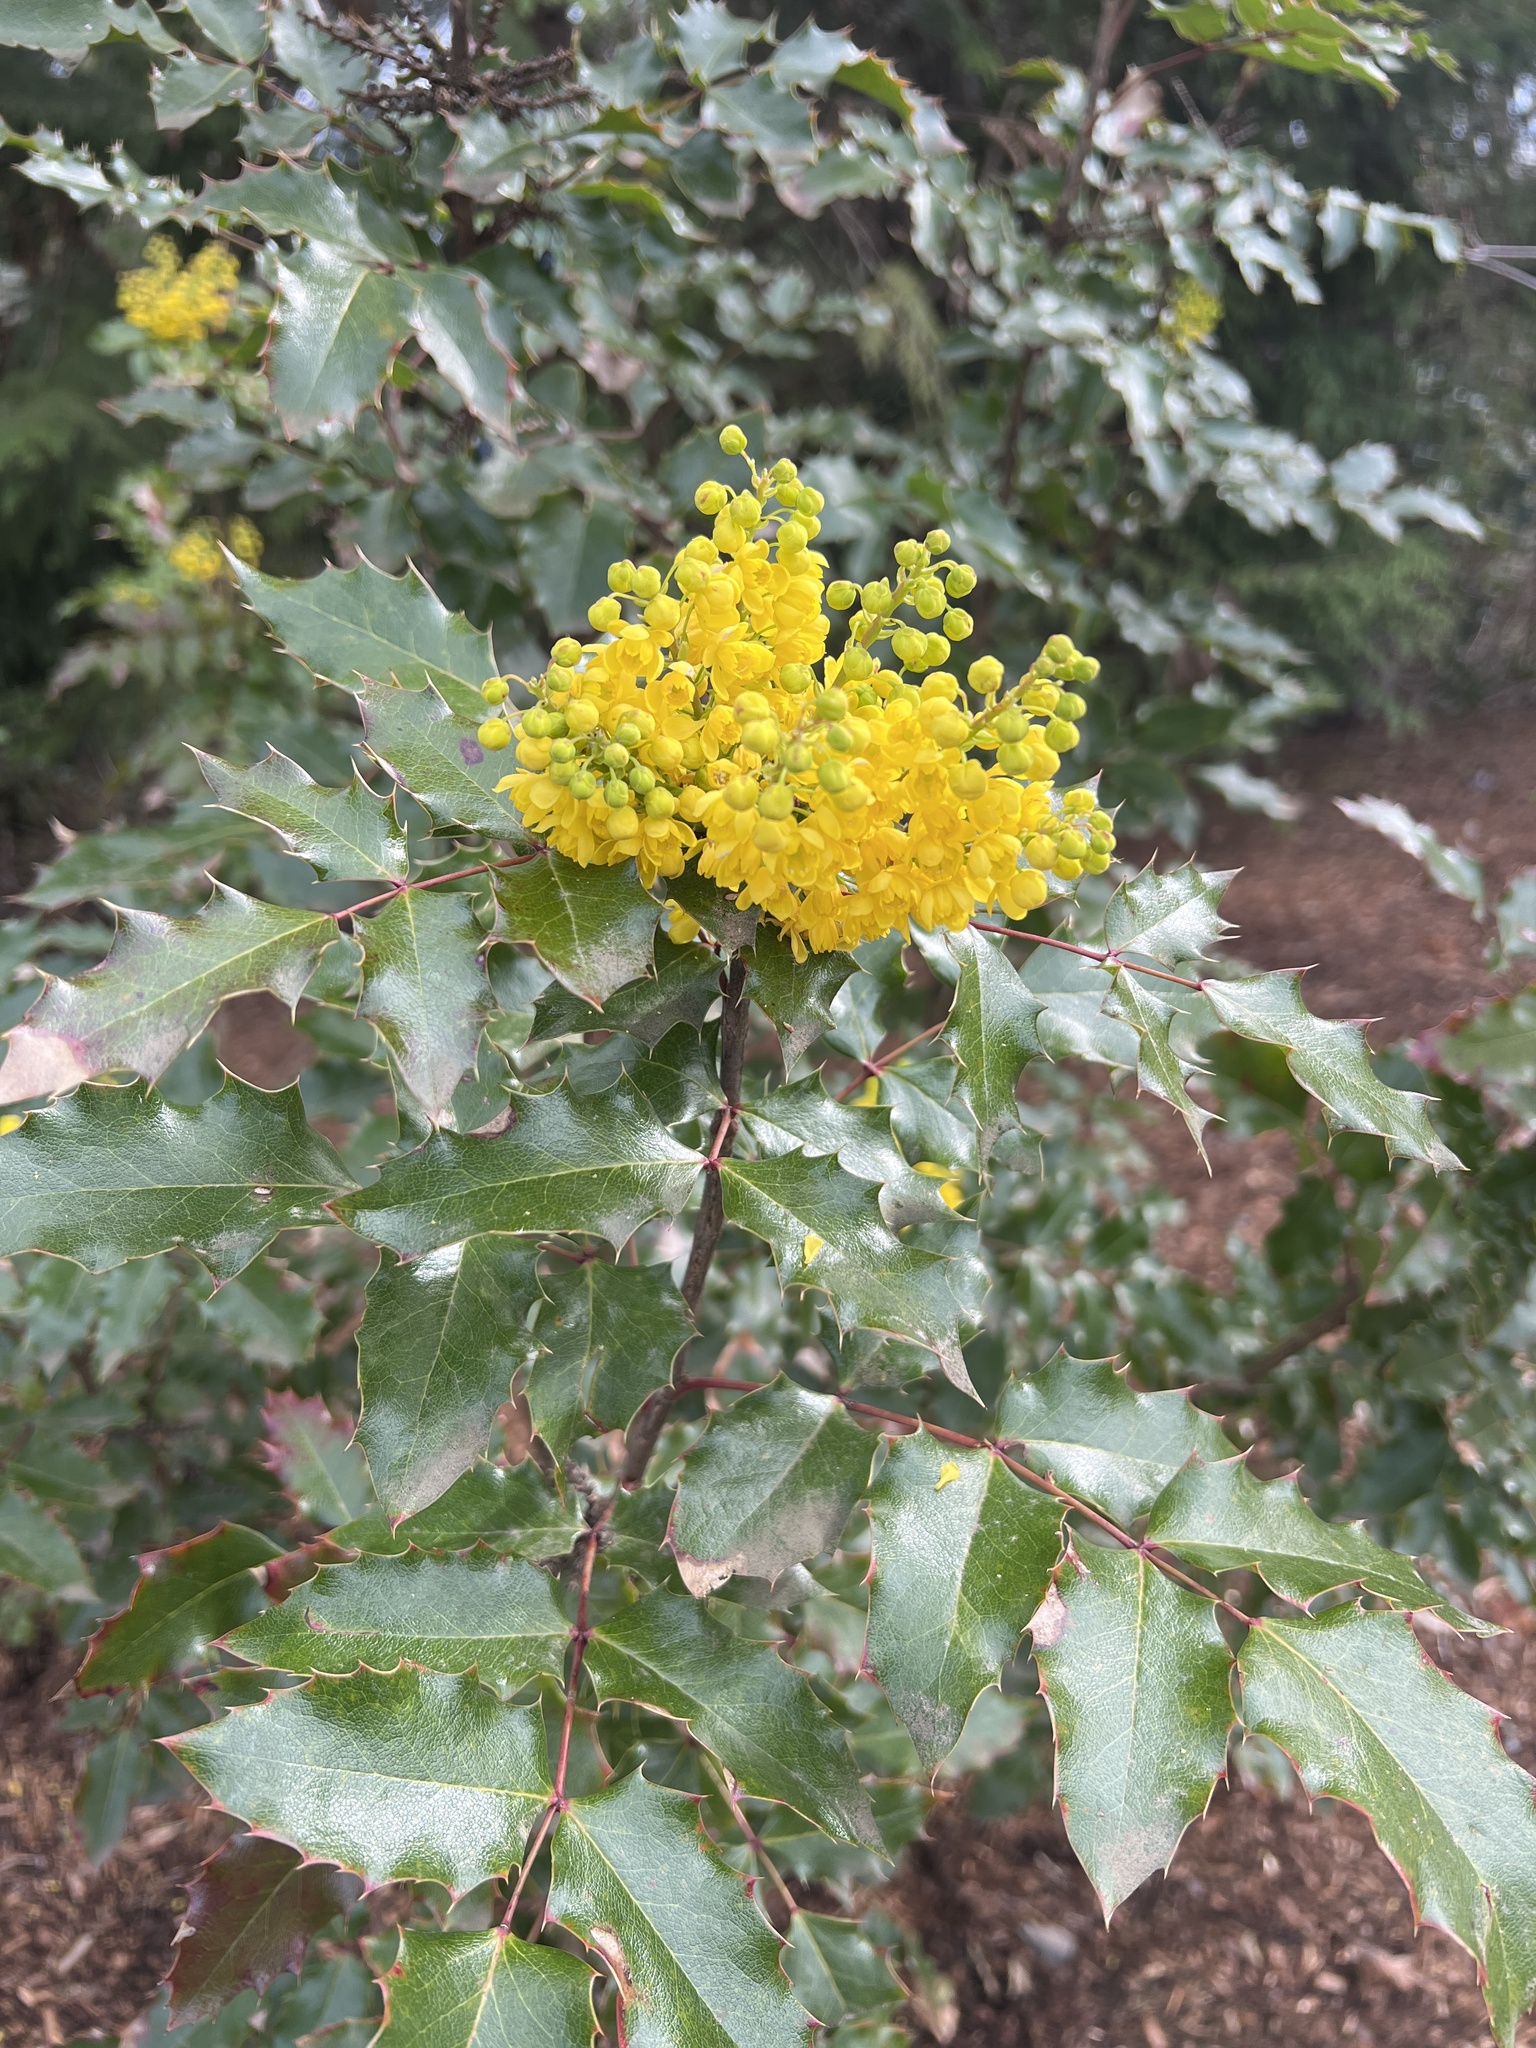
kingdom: Plantae
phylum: Tracheophyta
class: Magnoliopsida
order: Ranunculales
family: Berberidaceae
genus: Mahonia
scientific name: Mahonia aquifolium
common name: Oregon-grape
